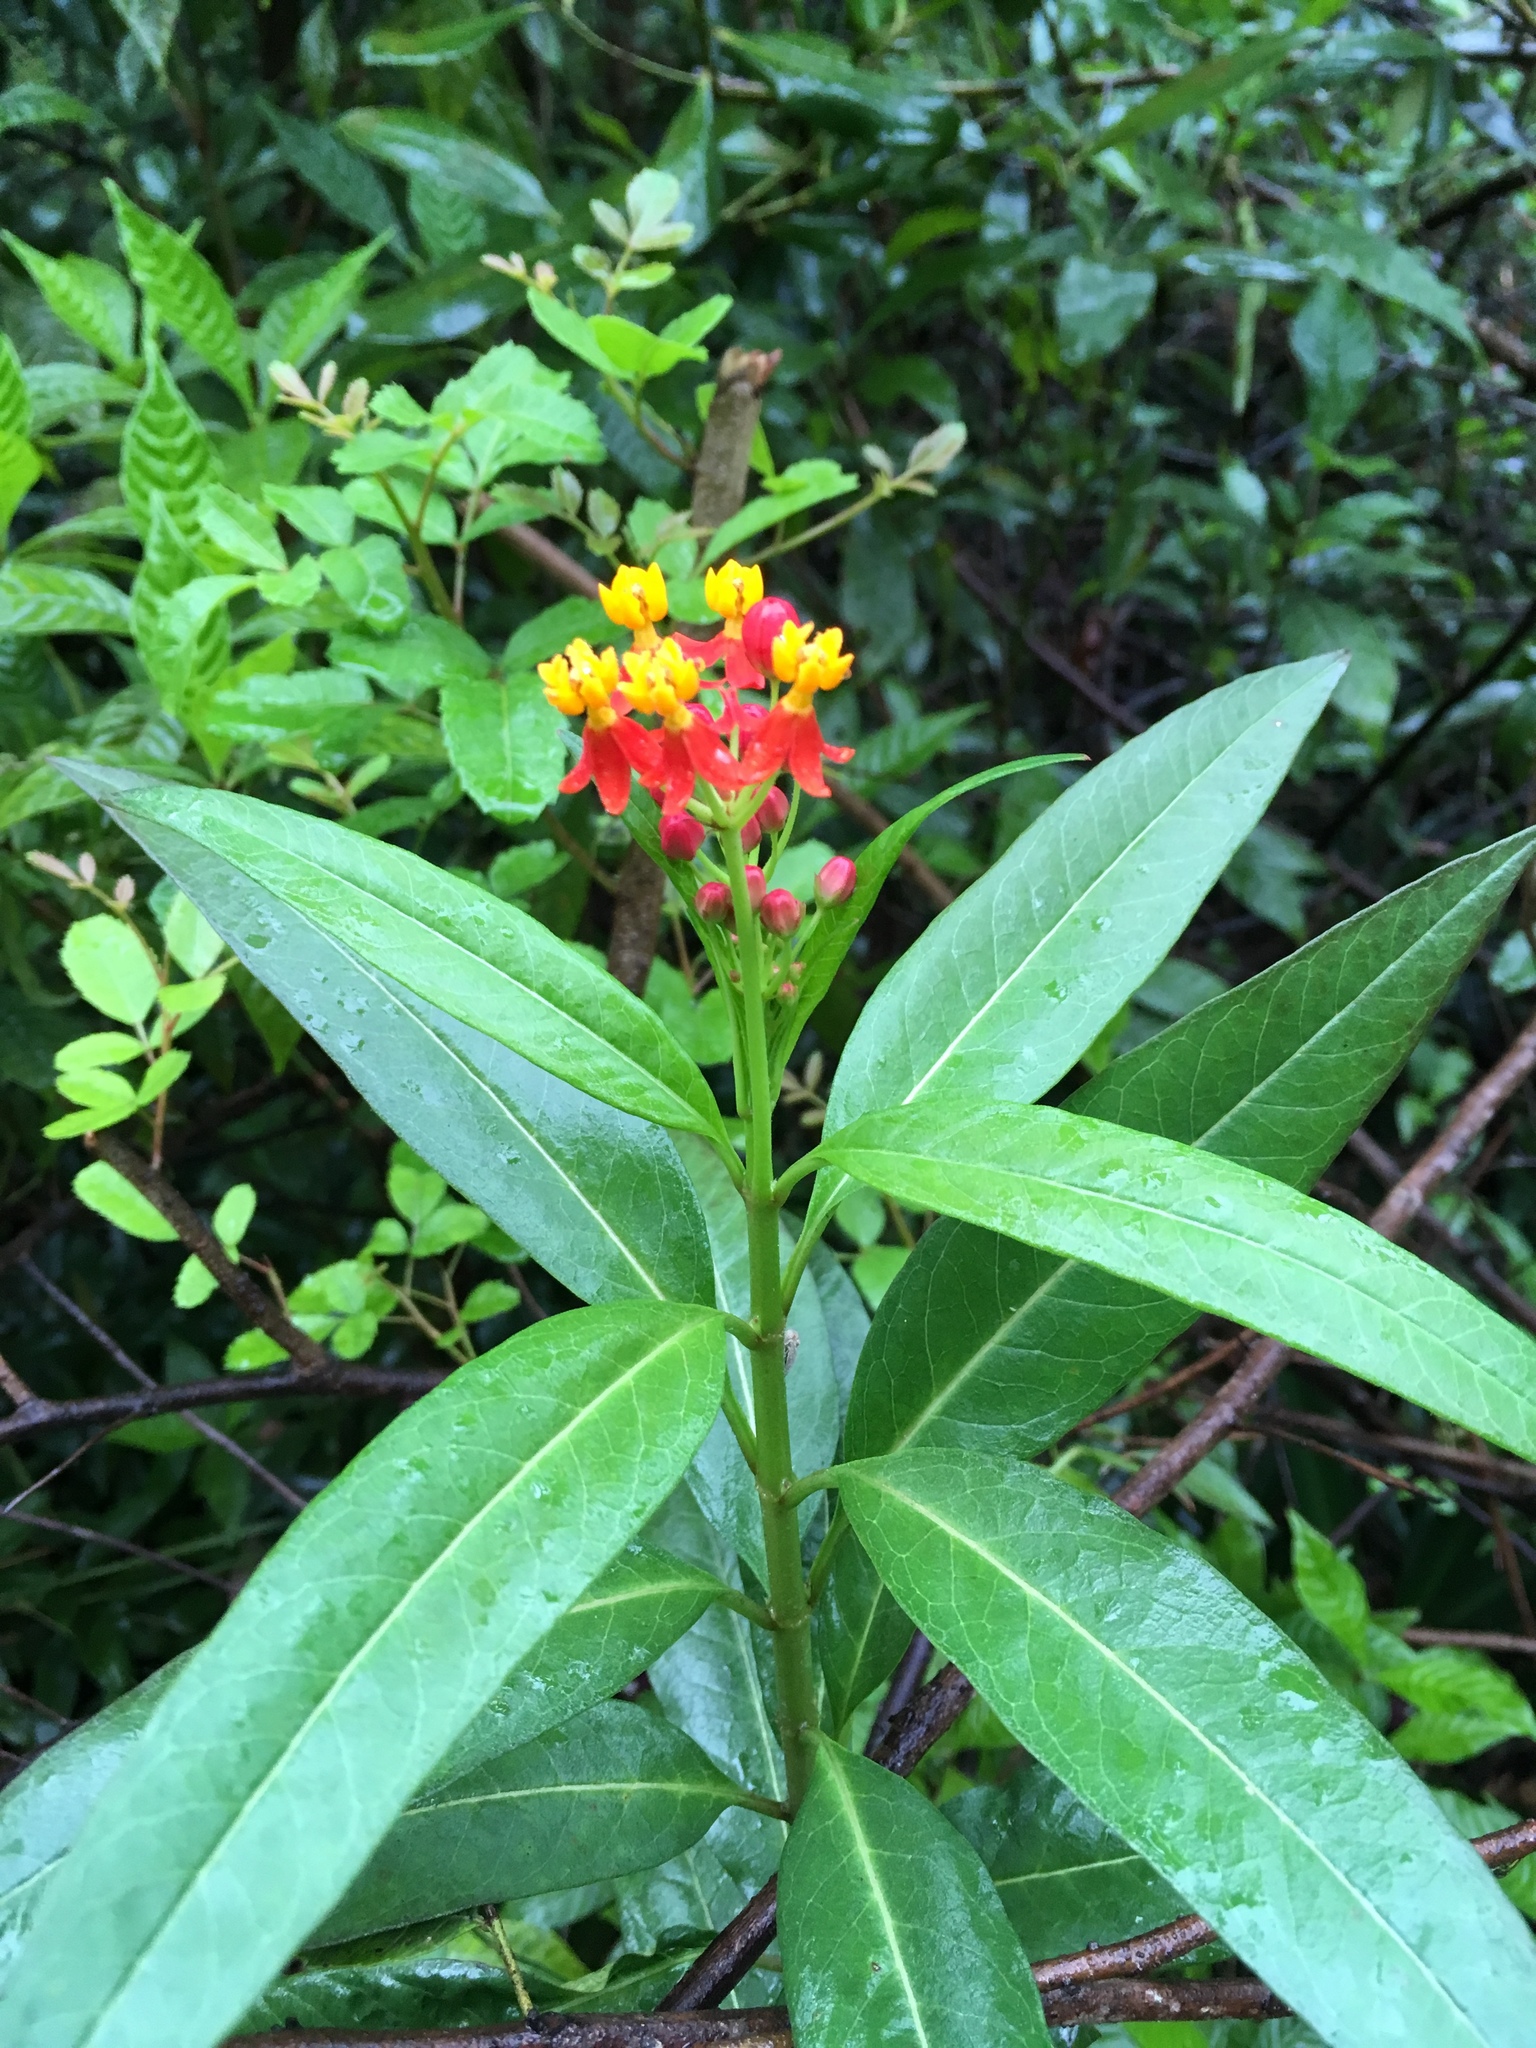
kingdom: Plantae
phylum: Tracheophyta
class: Magnoliopsida
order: Gentianales
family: Apocynaceae
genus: Asclepias
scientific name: Asclepias curassavica
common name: Bloodflower
